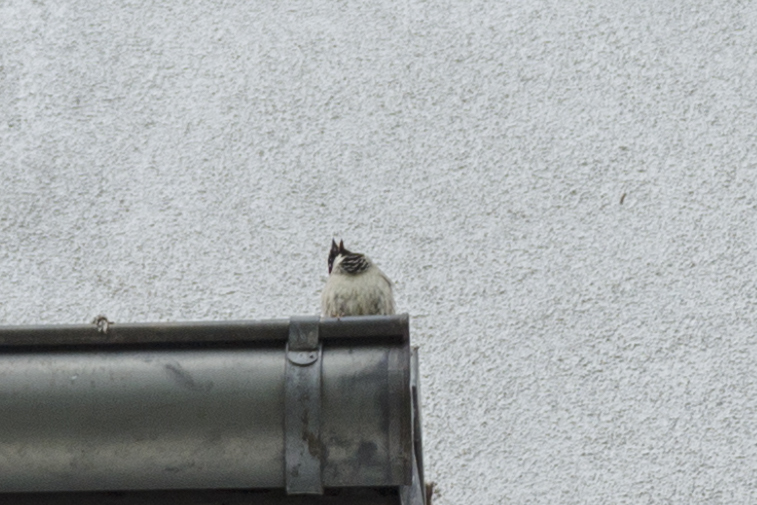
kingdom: Animalia
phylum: Chordata
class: Aves
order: Passeriformes
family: Passeridae
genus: Passer
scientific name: Passer domesticus
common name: House sparrow
